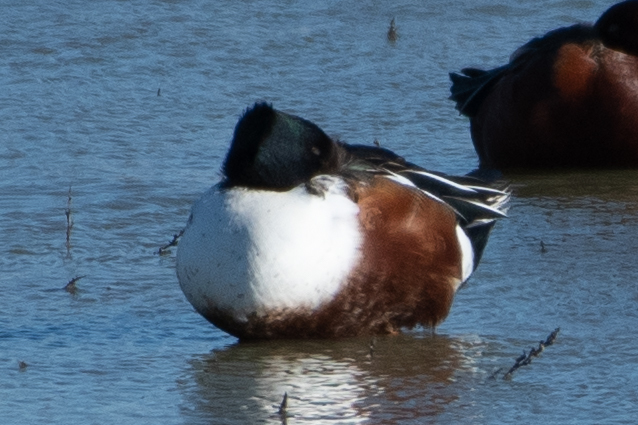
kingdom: Animalia
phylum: Chordata
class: Aves
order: Anseriformes
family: Anatidae
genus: Spatula
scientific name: Spatula clypeata
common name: Northern shoveler
